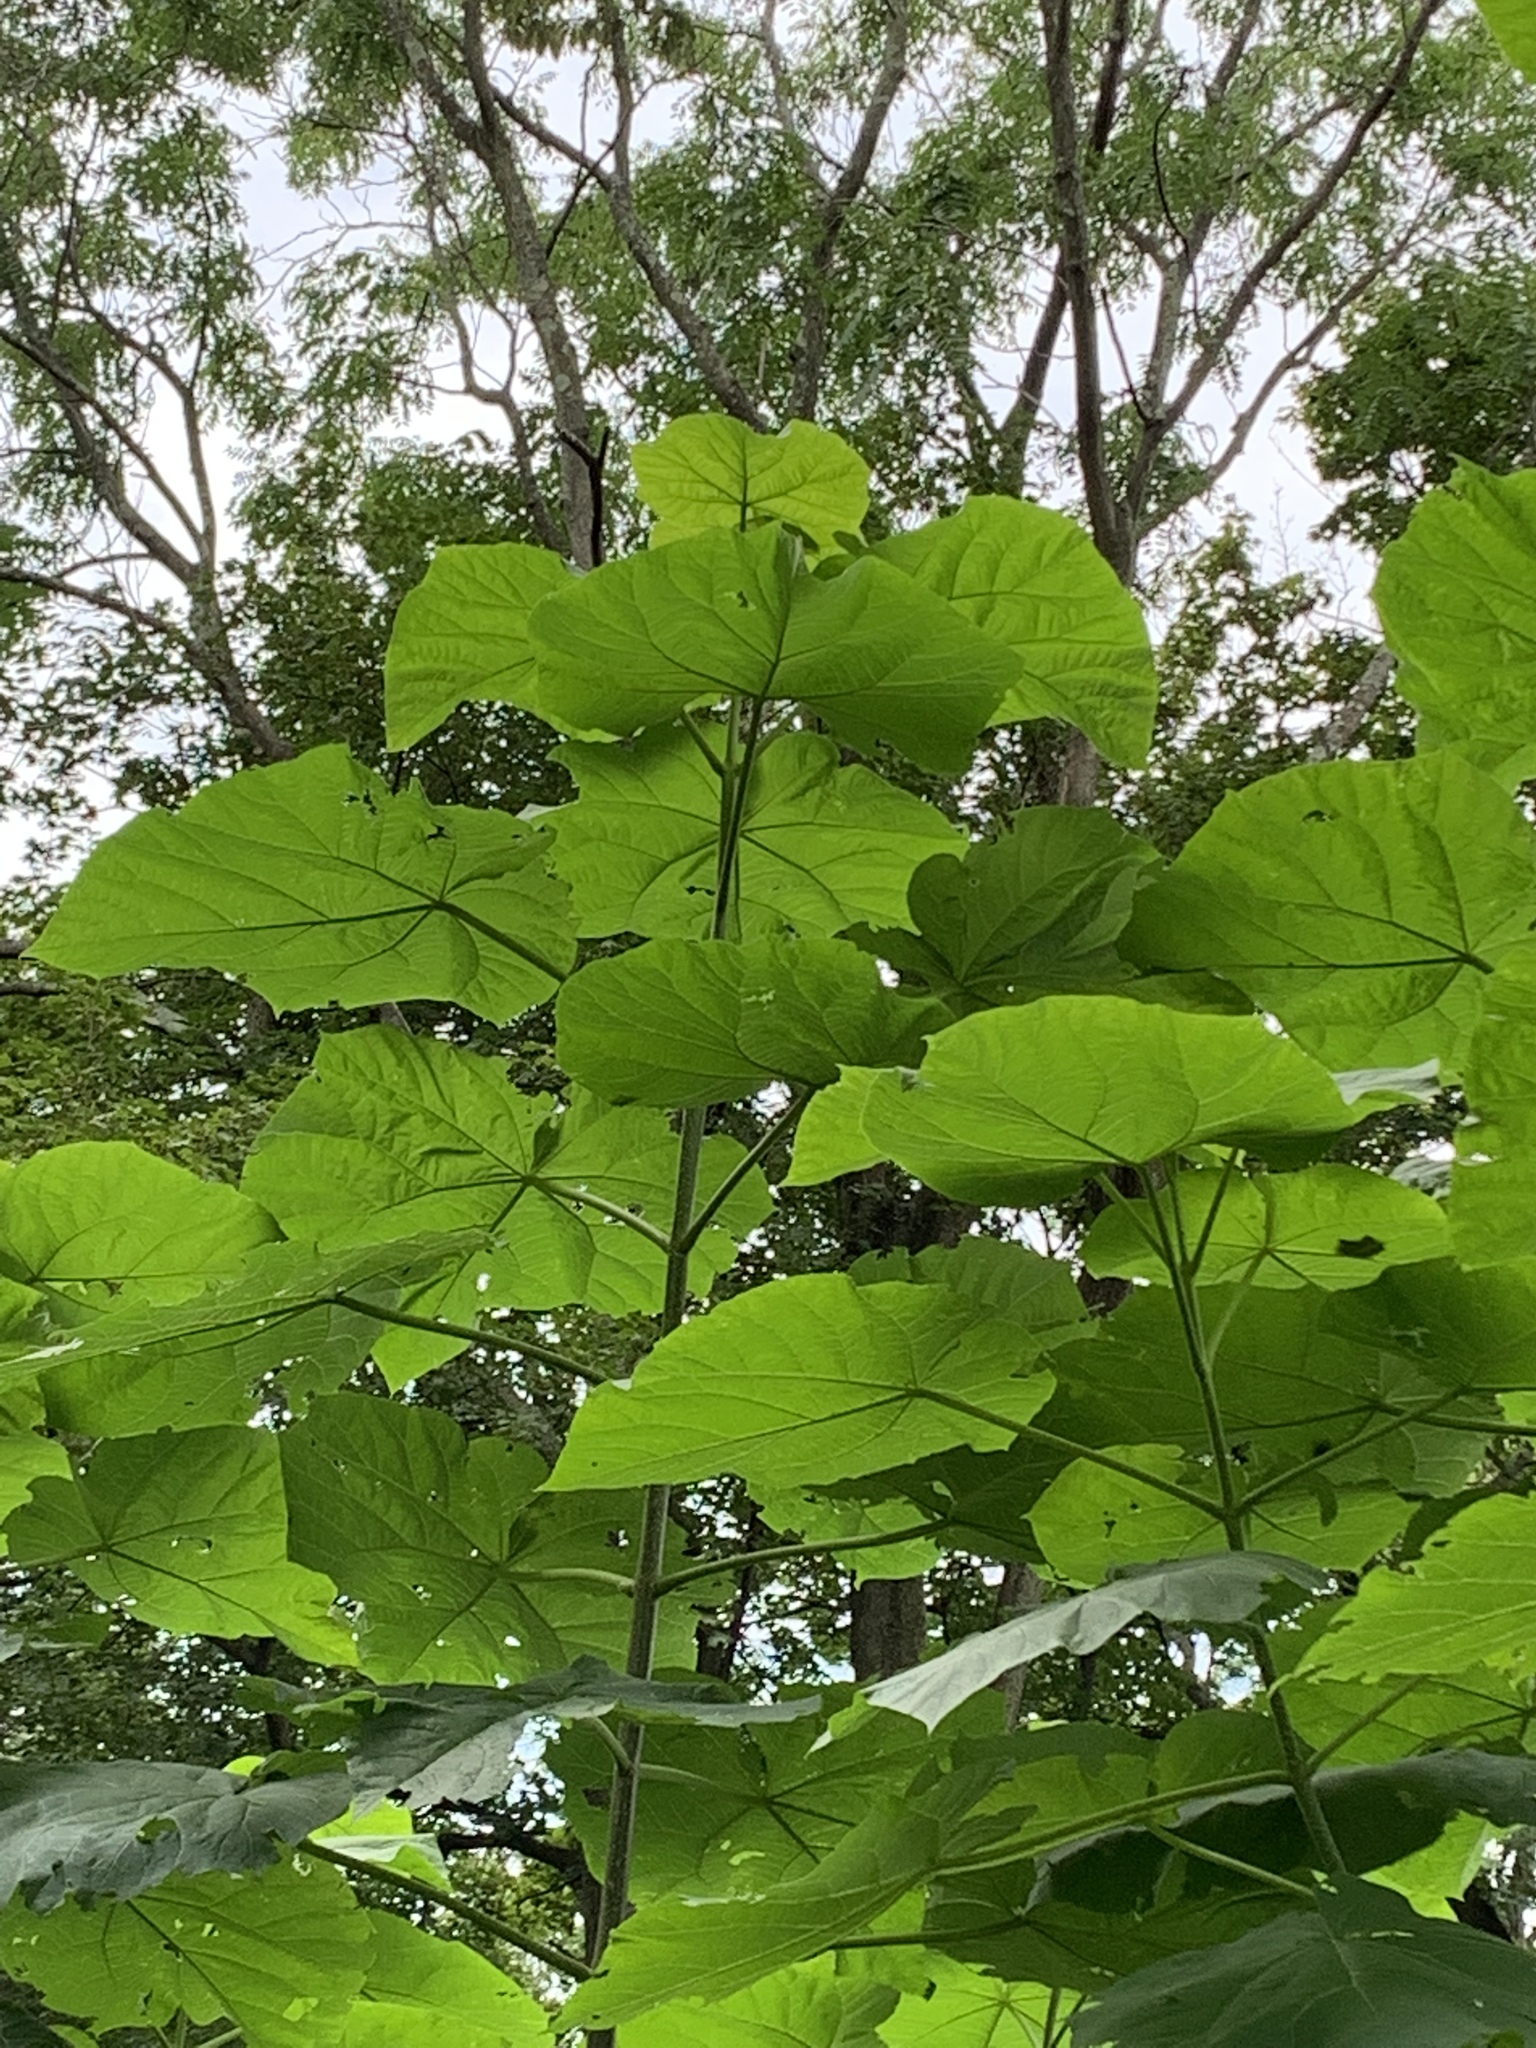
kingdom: Plantae
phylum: Tracheophyta
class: Magnoliopsida
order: Lamiales
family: Paulowniaceae
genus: Paulownia
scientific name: Paulownia tomentosa
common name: Foxglove-tree
